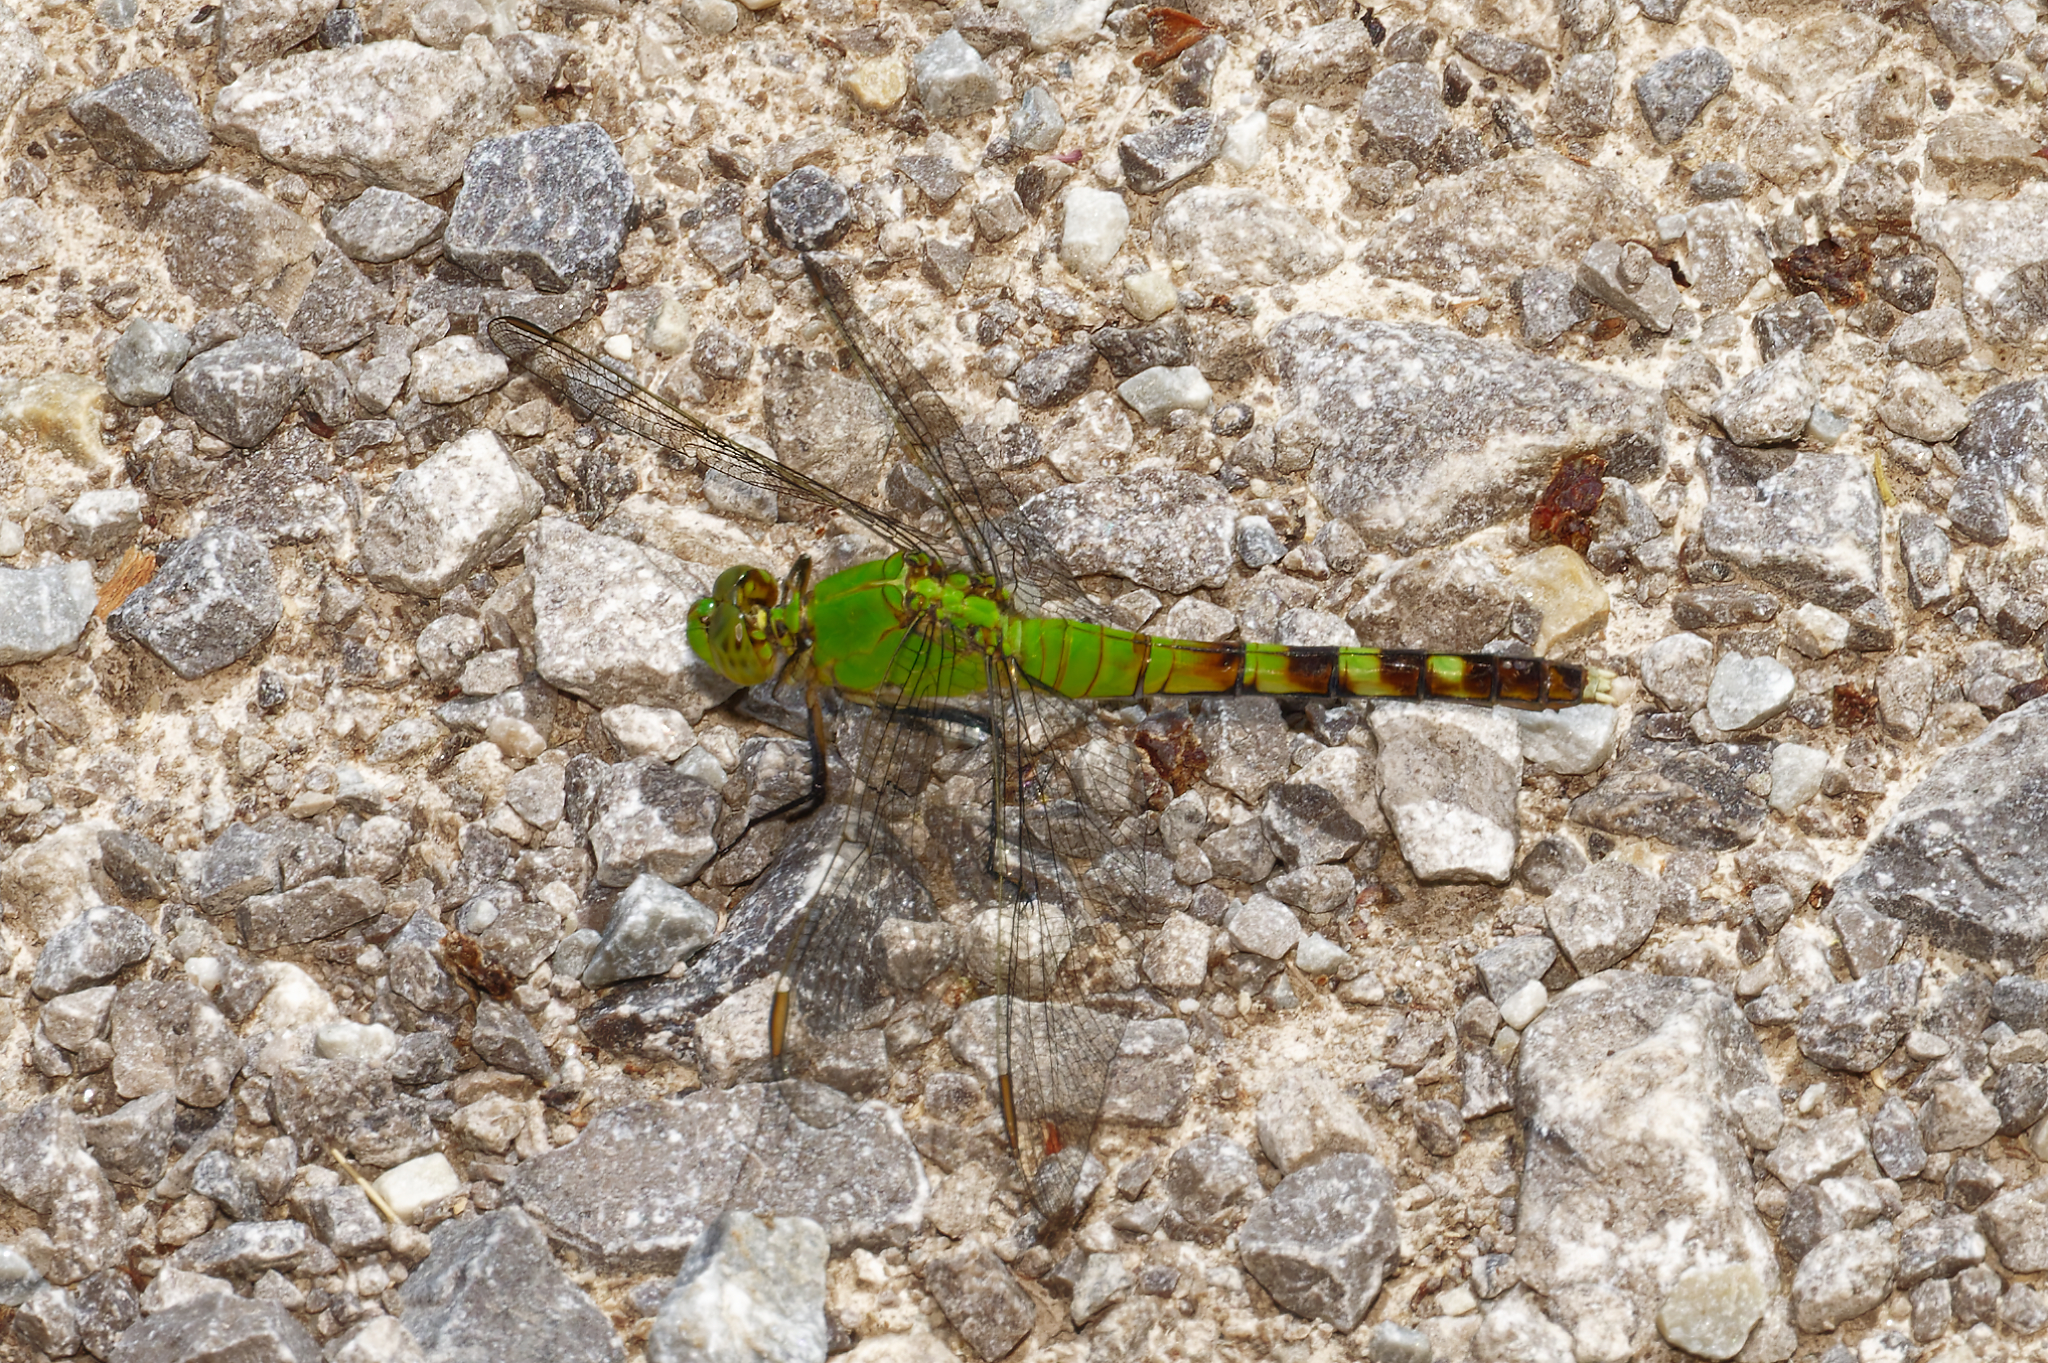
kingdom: Animalia
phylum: Arthropoda
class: Insecta
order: Odonata
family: Libellulidae
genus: Erythemis
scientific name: Erythemis simplicicollis
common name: Eastern pondhawk
